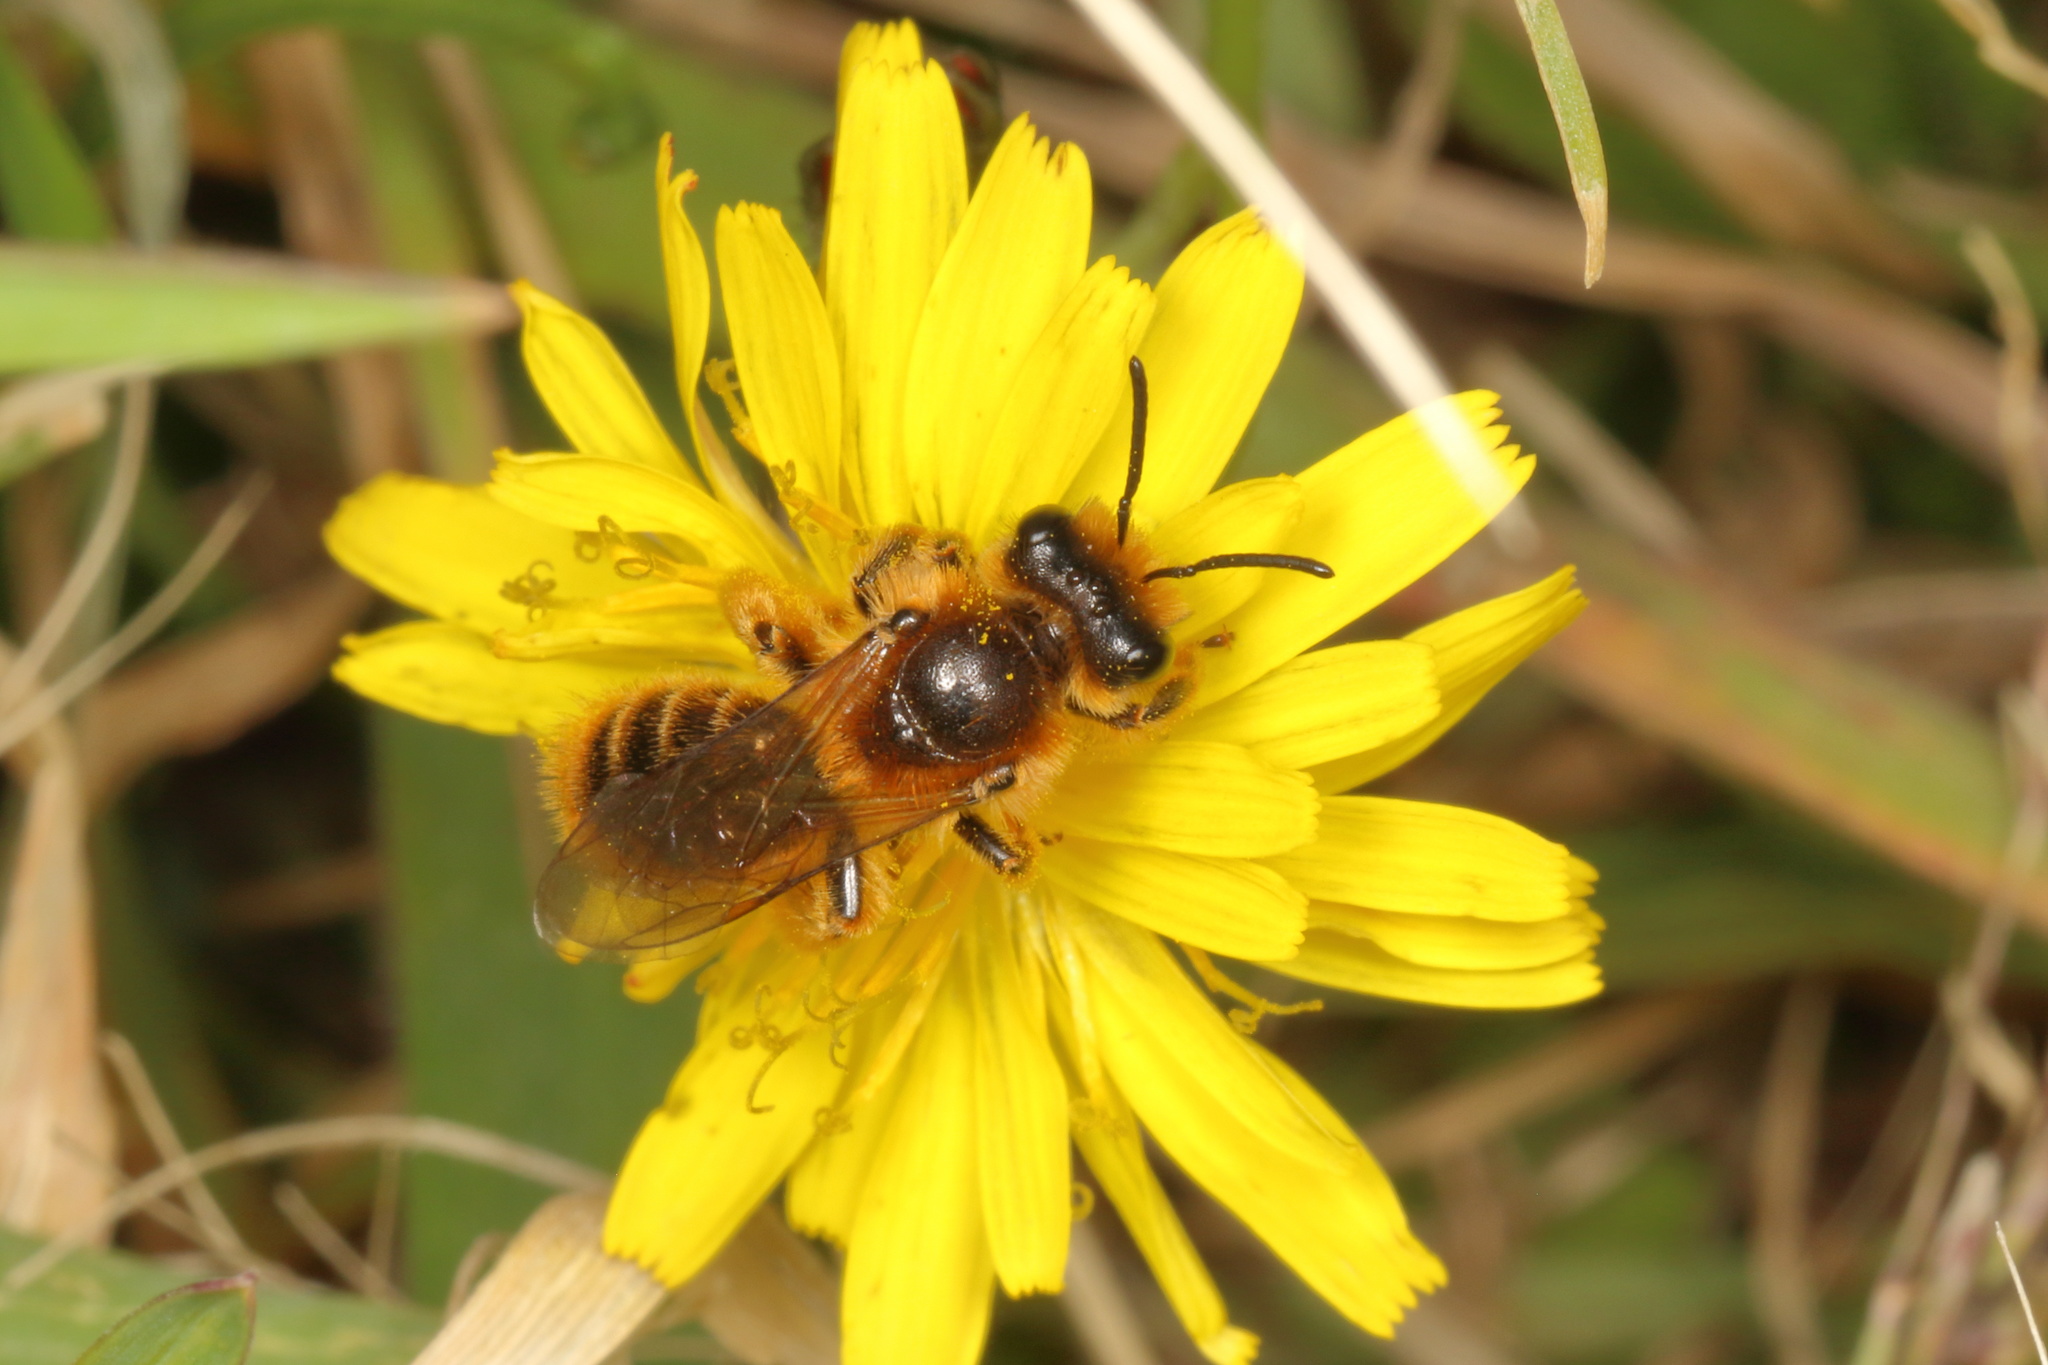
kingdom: Animalia
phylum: Arthropoda
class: Insecta
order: Hymenoptera
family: Colletidae
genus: Leioproctus
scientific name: Leioproctus fulvescens
